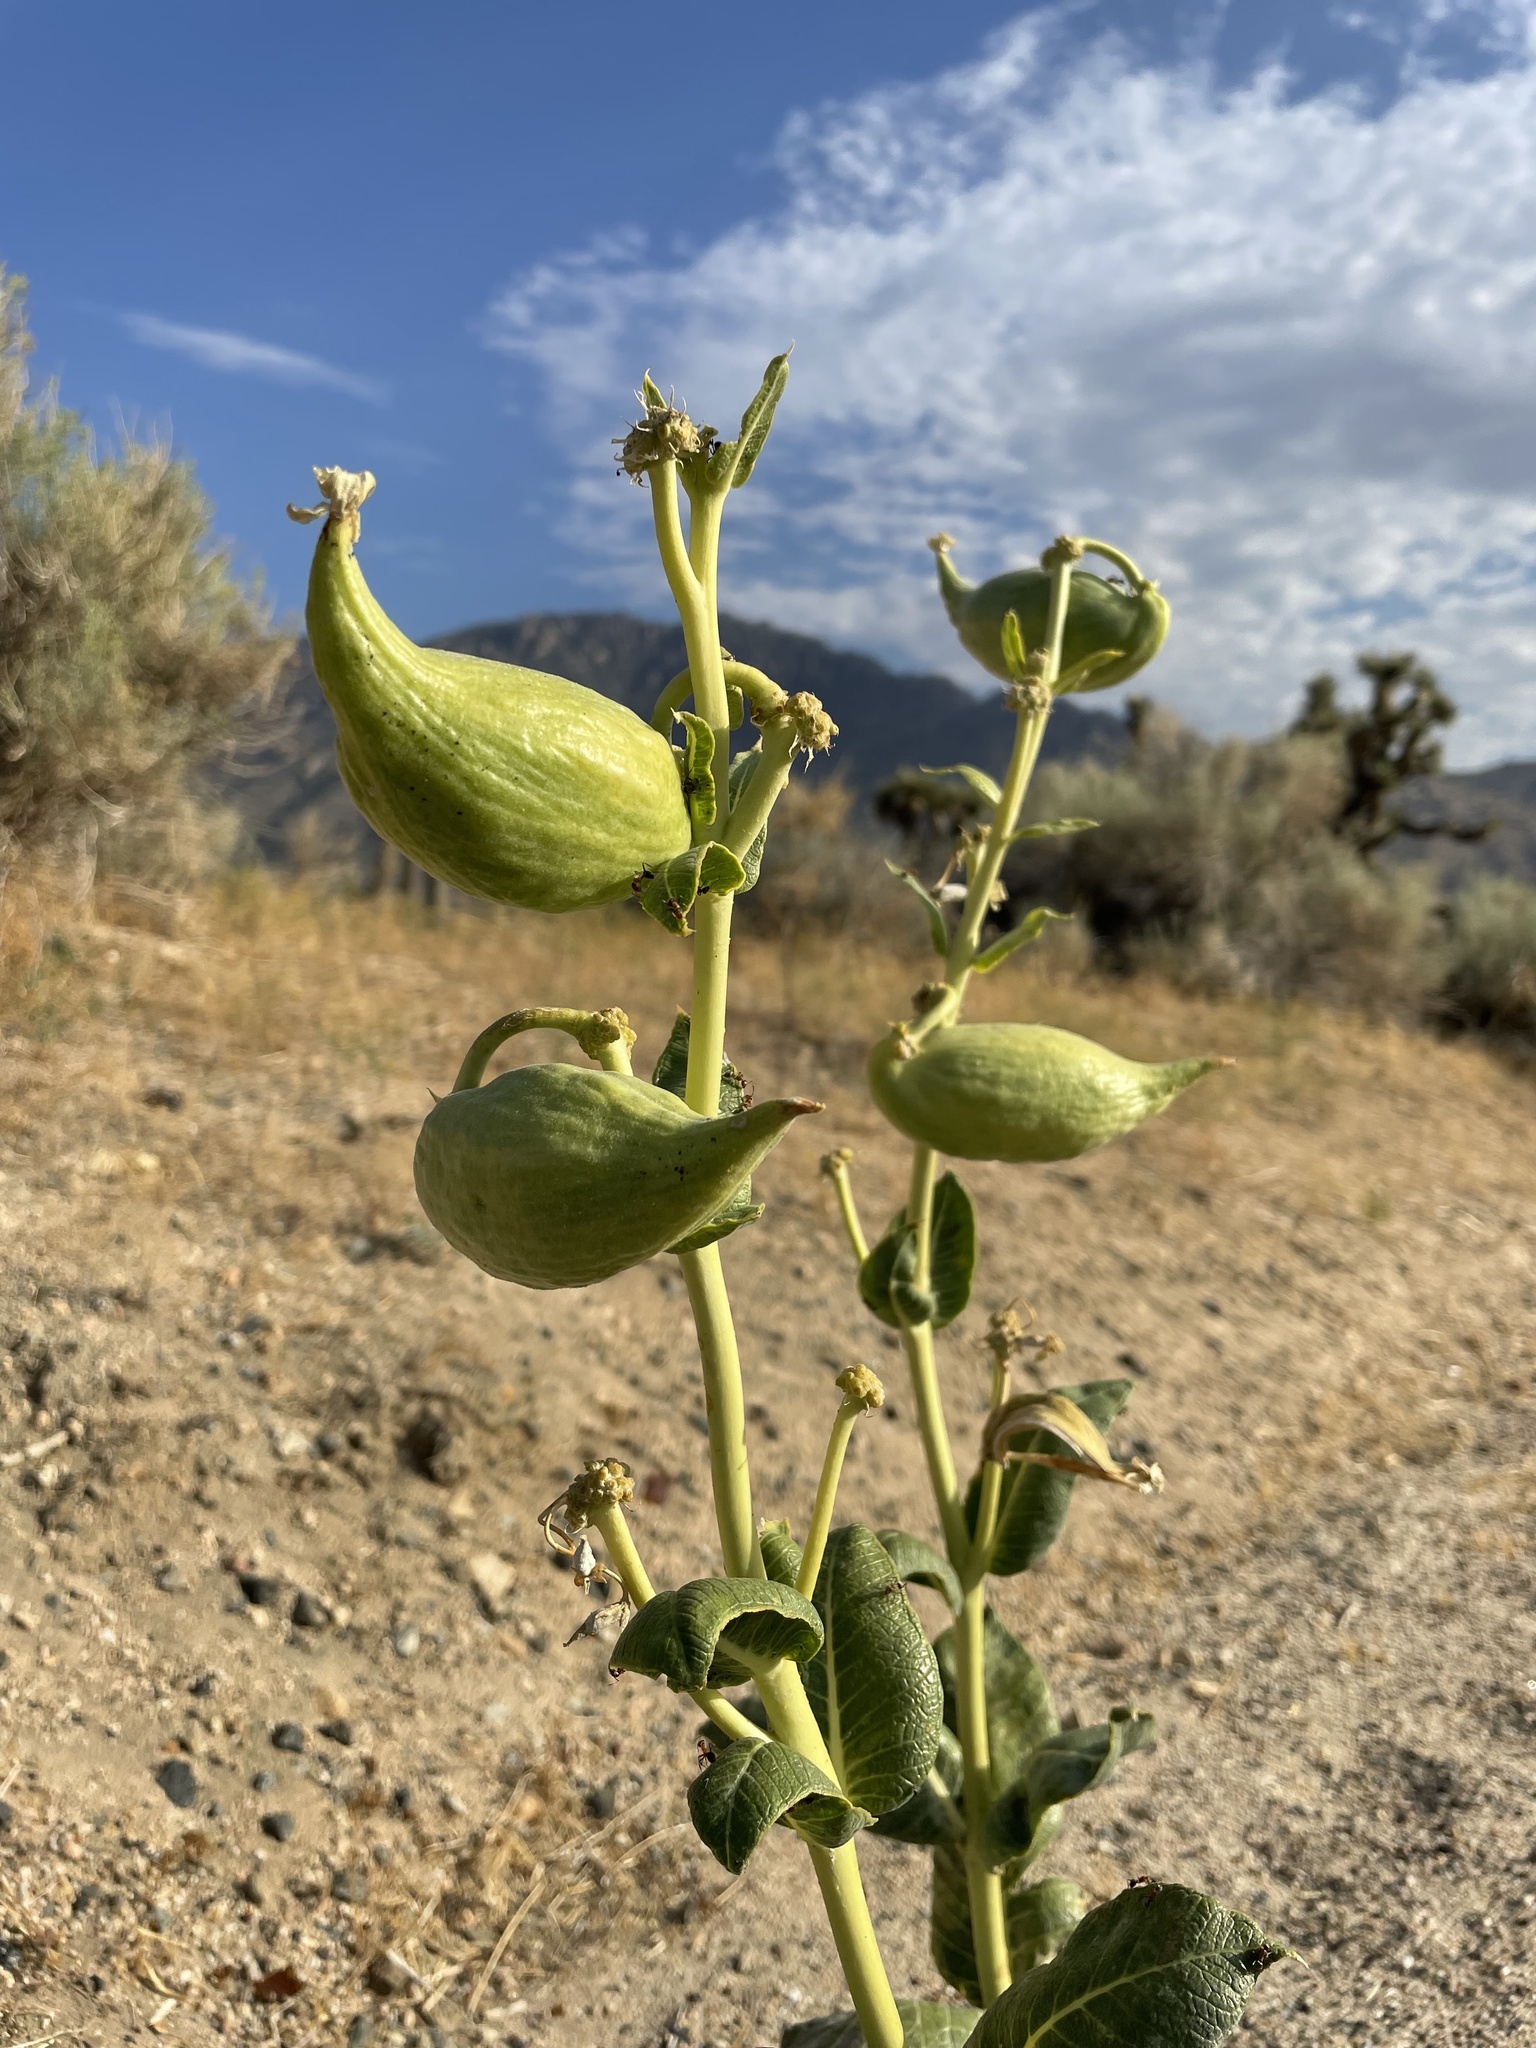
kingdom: Plantae
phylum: Tracheophyta
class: Magnoliopsida
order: Gentianales
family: Apocynaceae
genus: Asclepias
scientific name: Asclepias erosa
